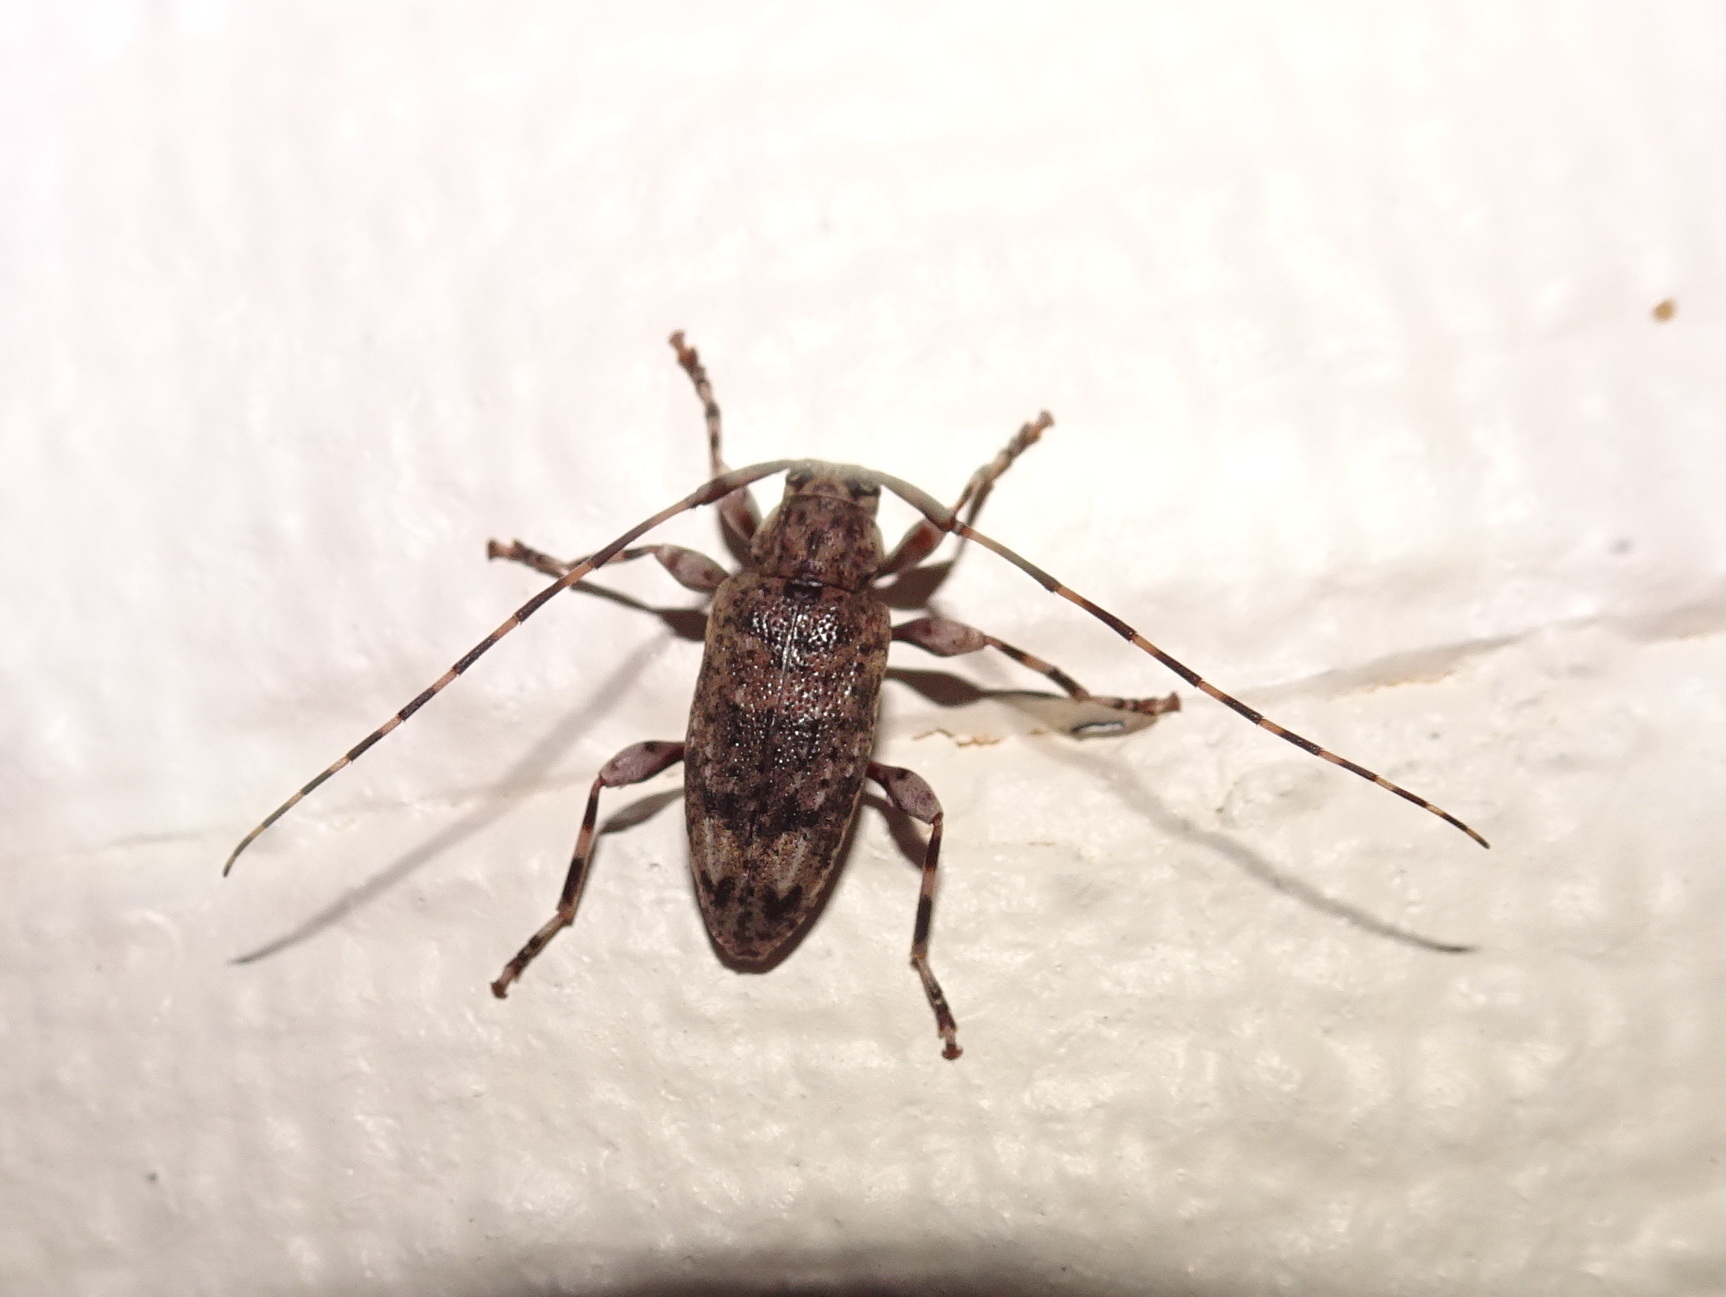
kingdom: Animalia
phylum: Arthropoda
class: Insecta
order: Coleoptera
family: Cerambycidae
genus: Astyleiopus
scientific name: Astyleiopus variegatus
